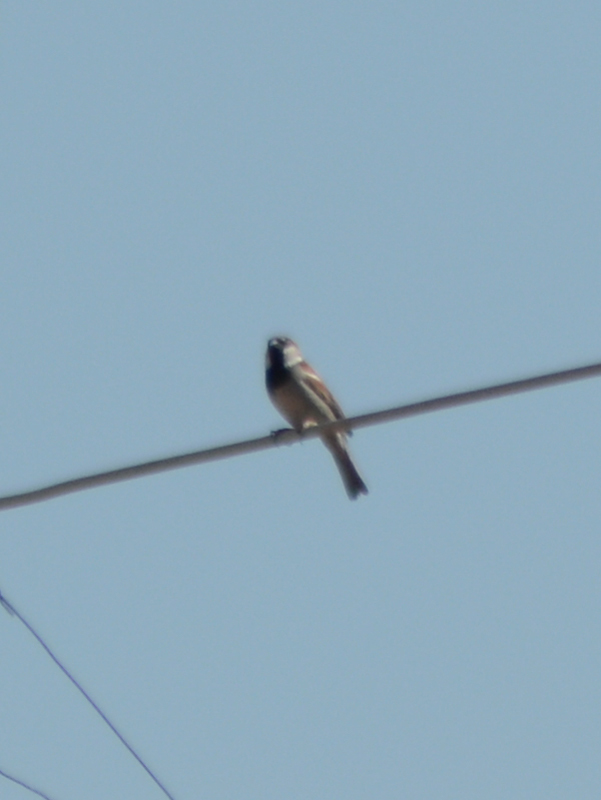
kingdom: Animalia
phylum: Chordata
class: Aves
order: Passeriformes
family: Passeridae
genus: Passer
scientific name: Passer domesticus
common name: House sparrow
